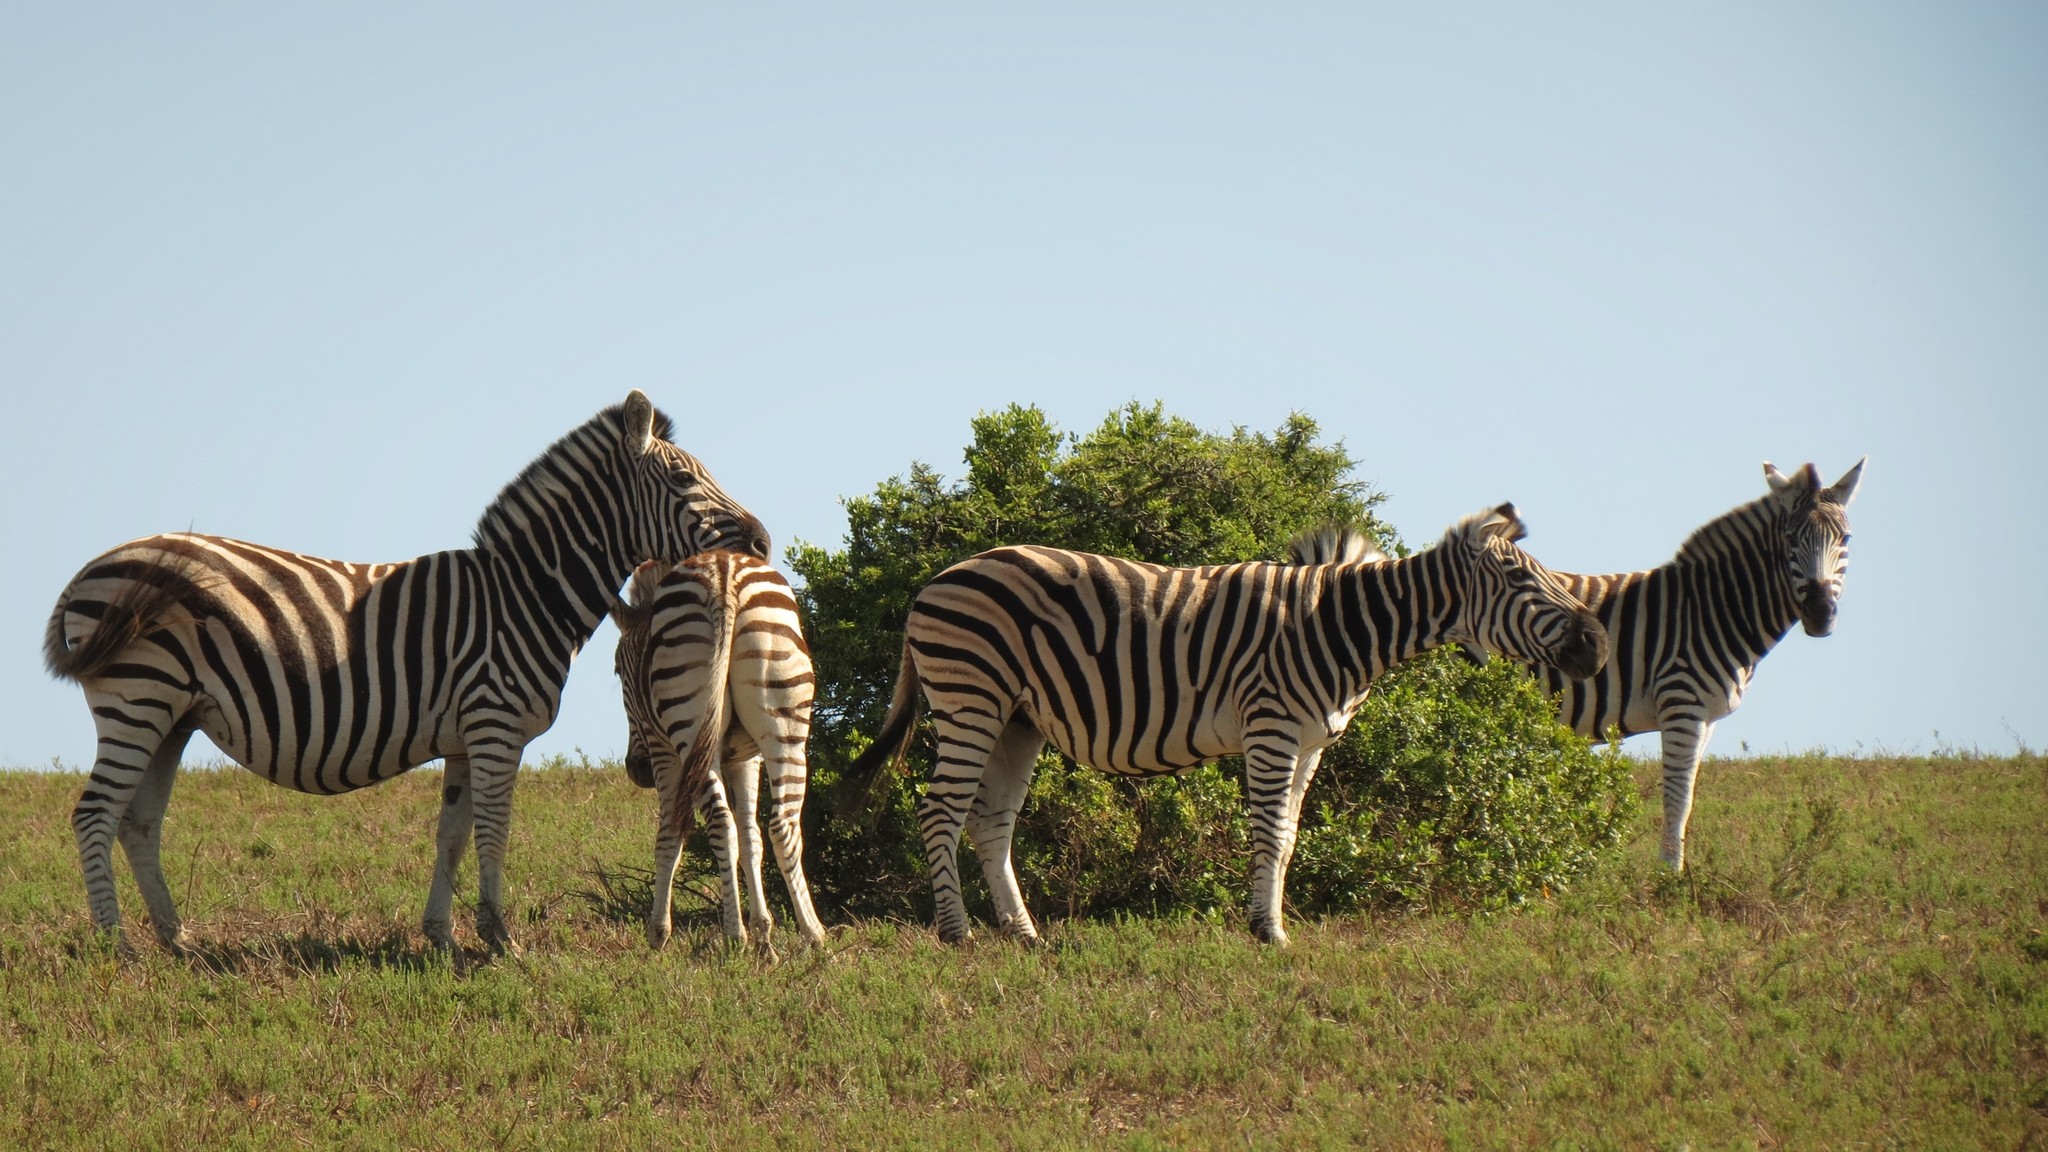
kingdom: Animalia
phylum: Chordata
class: Mammalia
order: Perissodactyla
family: Equidae
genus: Equus
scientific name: Equus quagga
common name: Plains zebra
